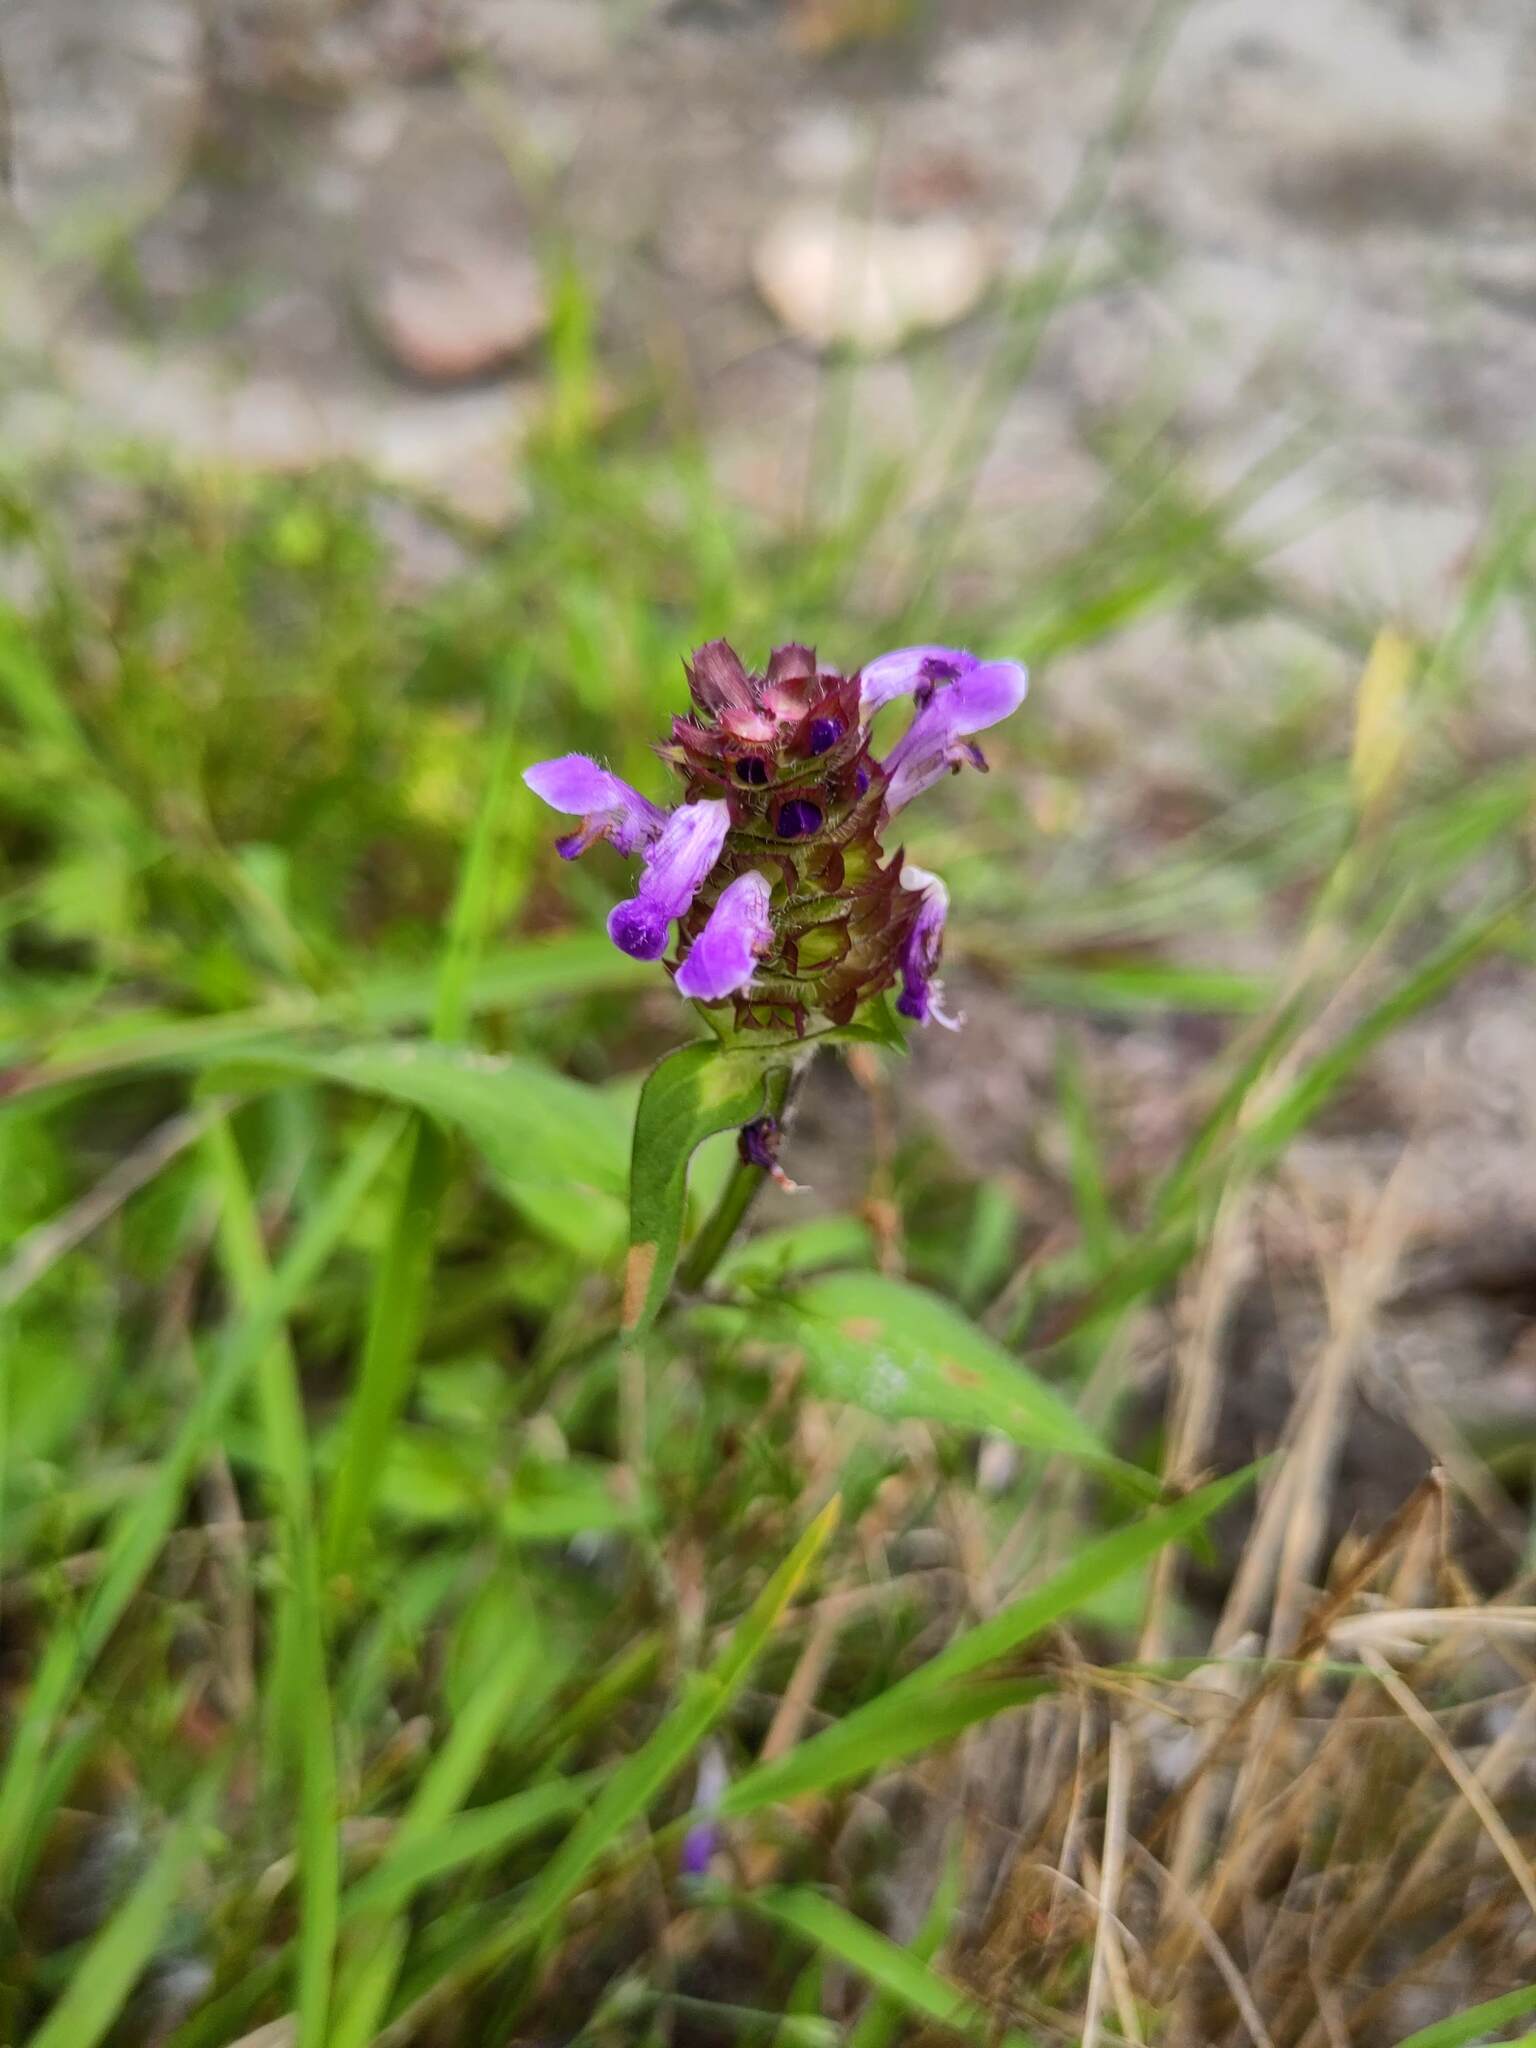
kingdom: Plantae
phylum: Tracheophyta
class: Magnoliopsida
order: Lamiales
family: Lamiaceae
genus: Prunella
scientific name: Prunella vulgaris
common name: Heal-all
